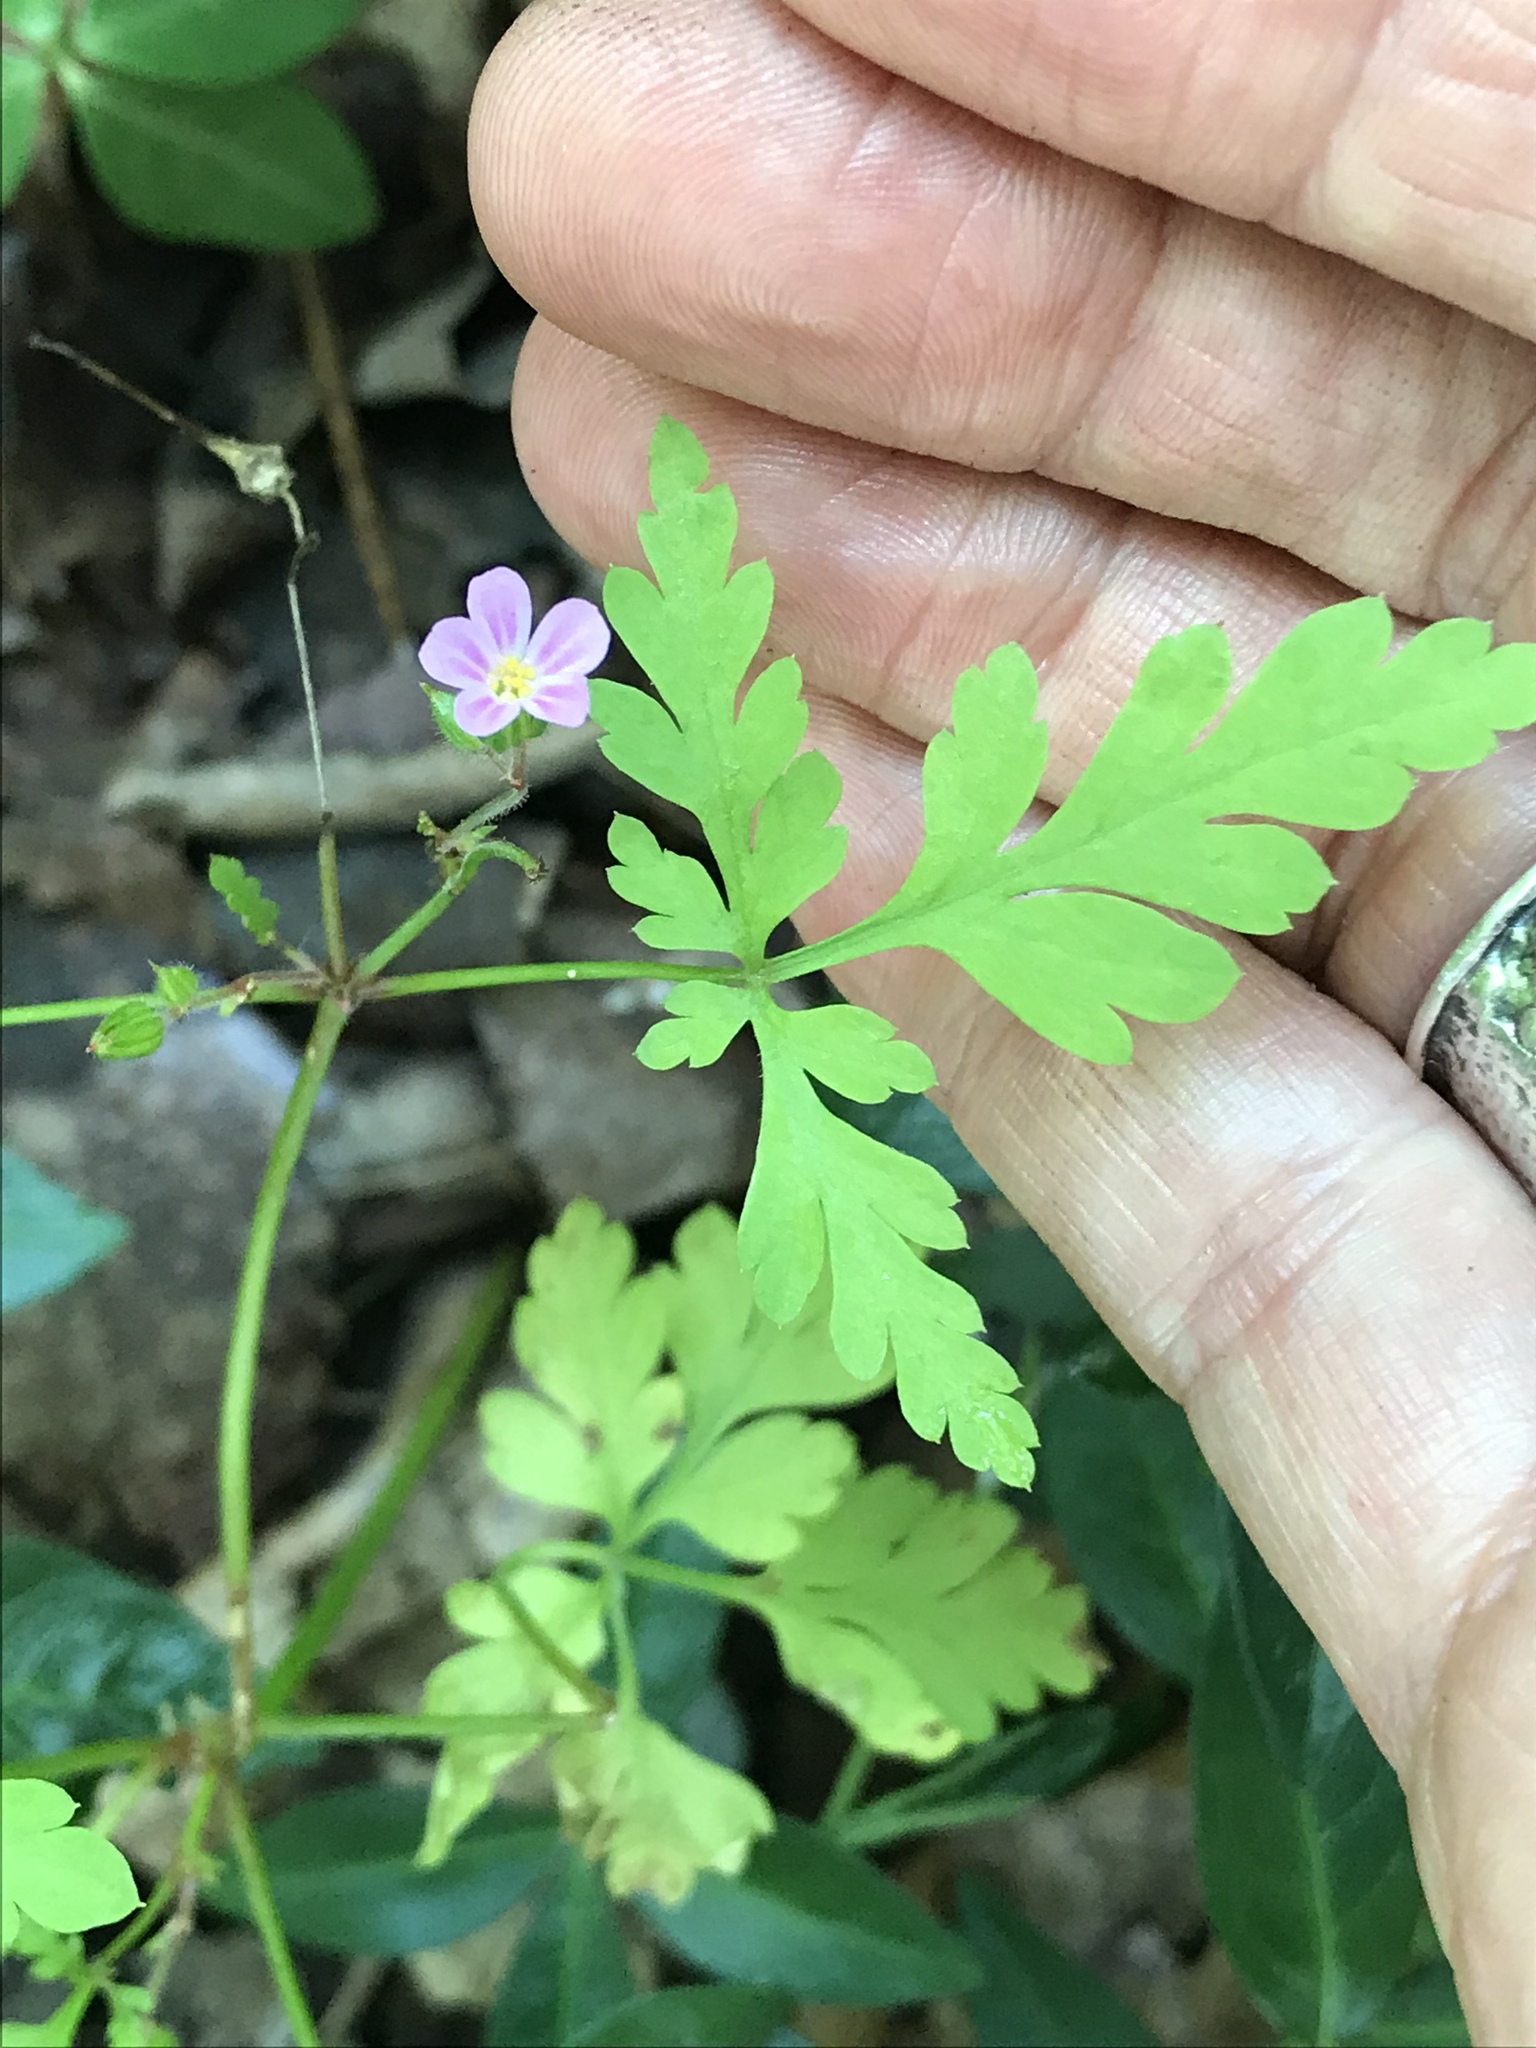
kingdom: Plantae
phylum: Tracheophyta
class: Magnoliopsida
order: Geraniales
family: Geraniaceae
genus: Geranium
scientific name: Geranium robertianum
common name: Herb-robert
